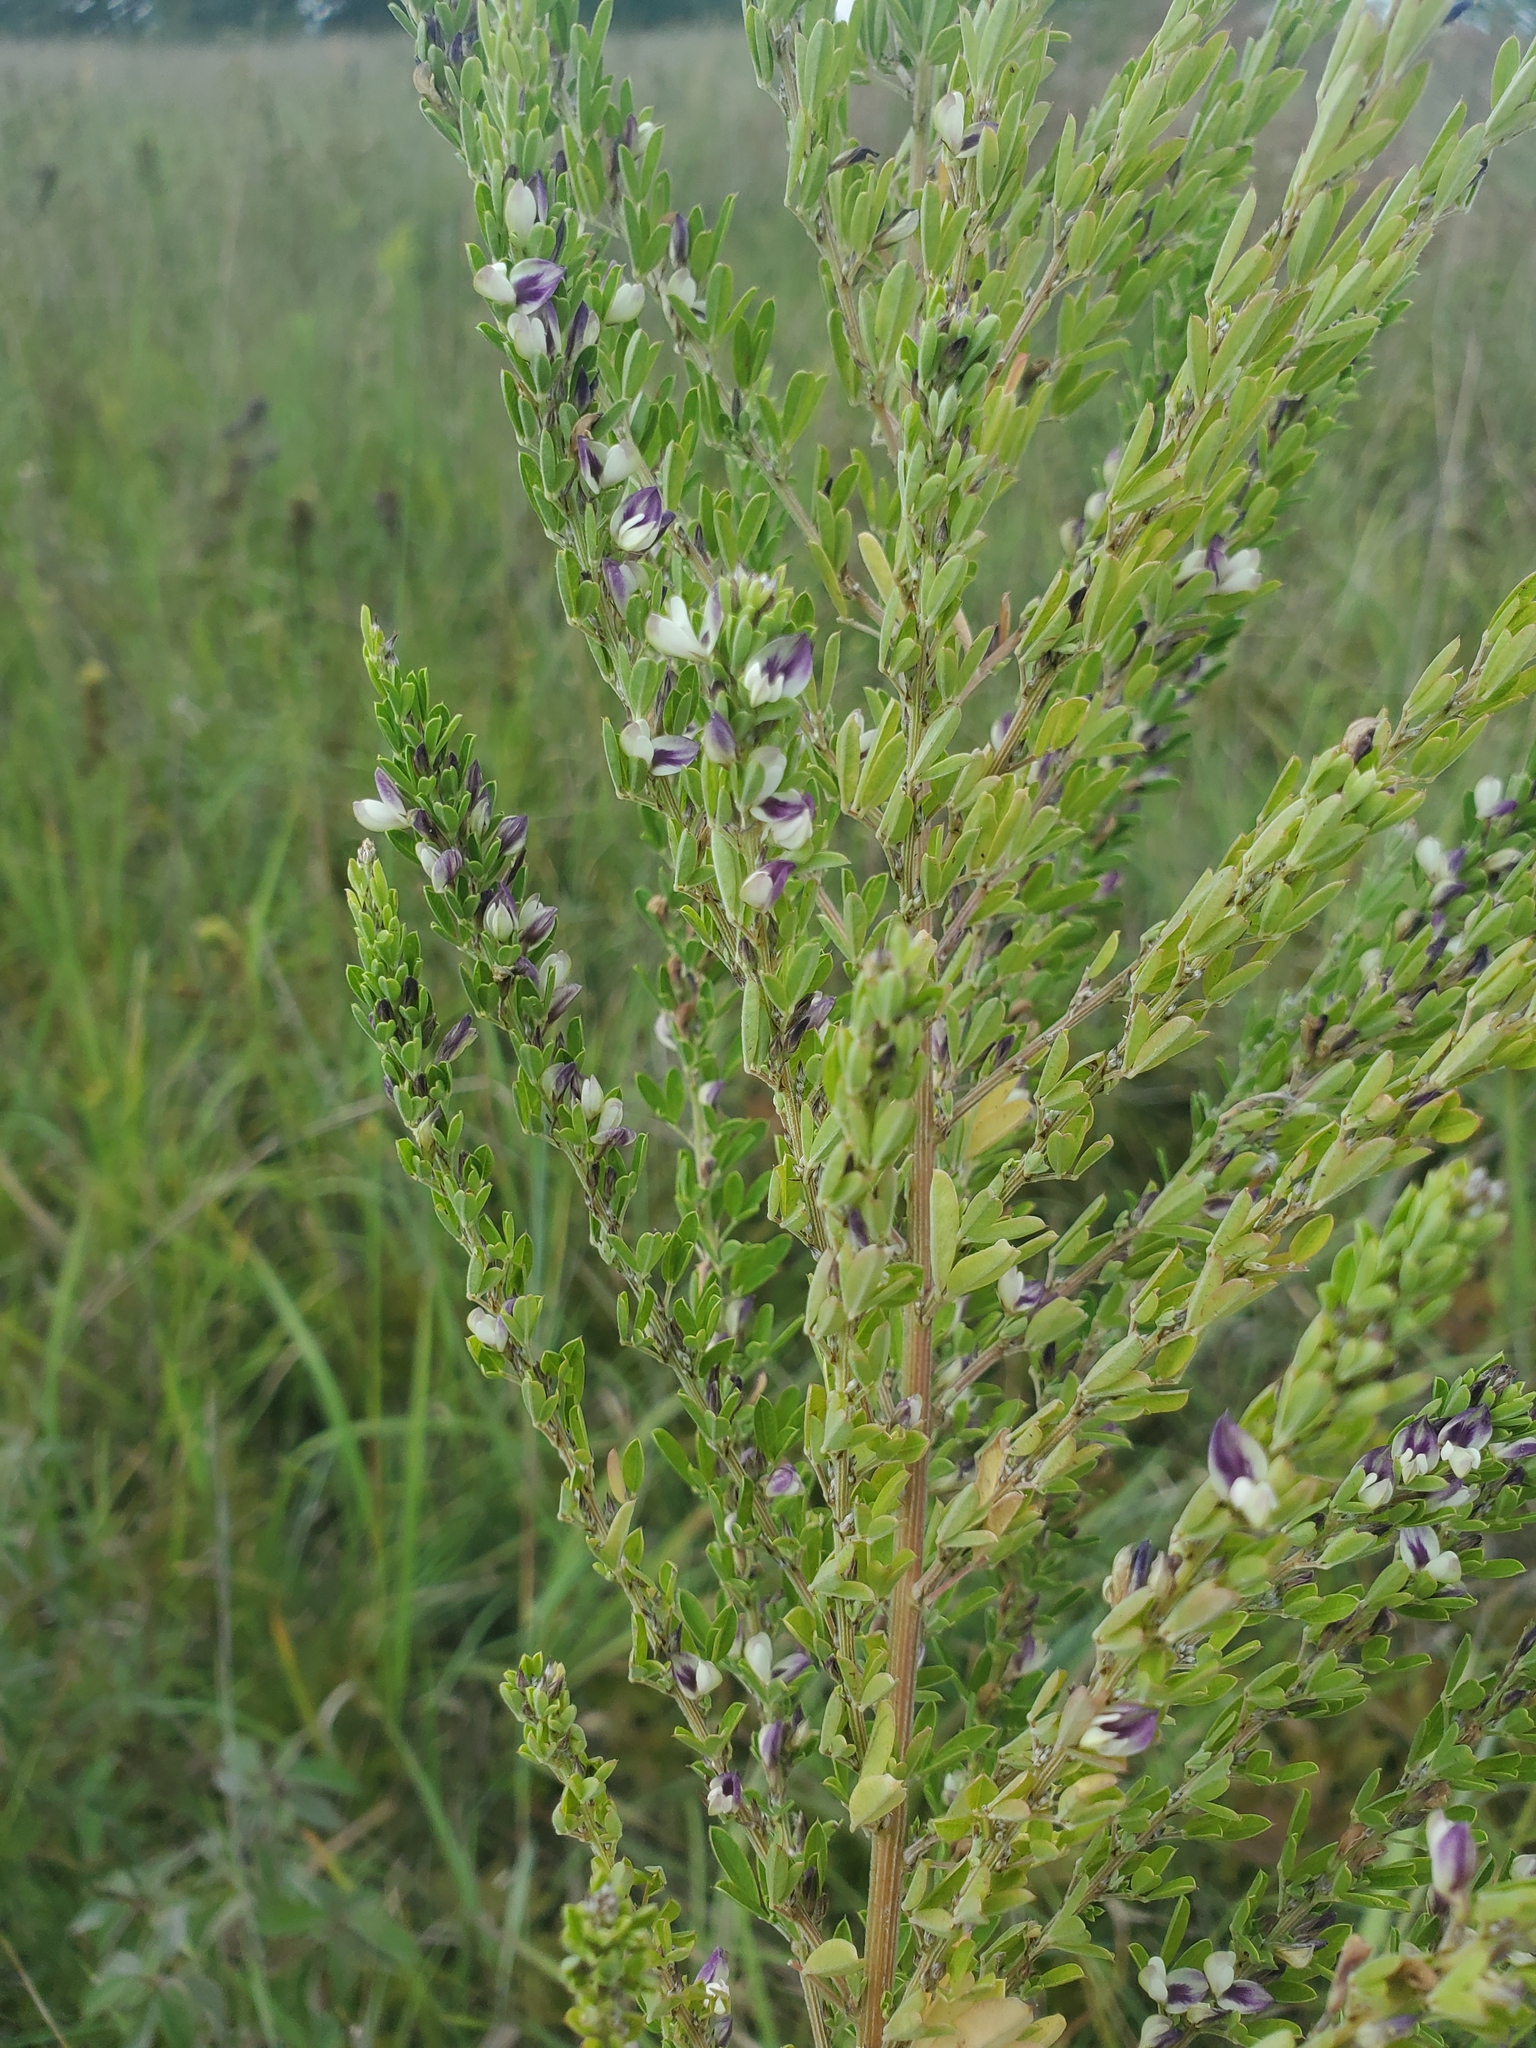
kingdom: Plantae
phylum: Tracheophyta
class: Magnoliopsida
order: Fabales
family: Fabaceae
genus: Lespedeza
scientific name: Lespedeza cuneata
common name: Chinese bush-clover
